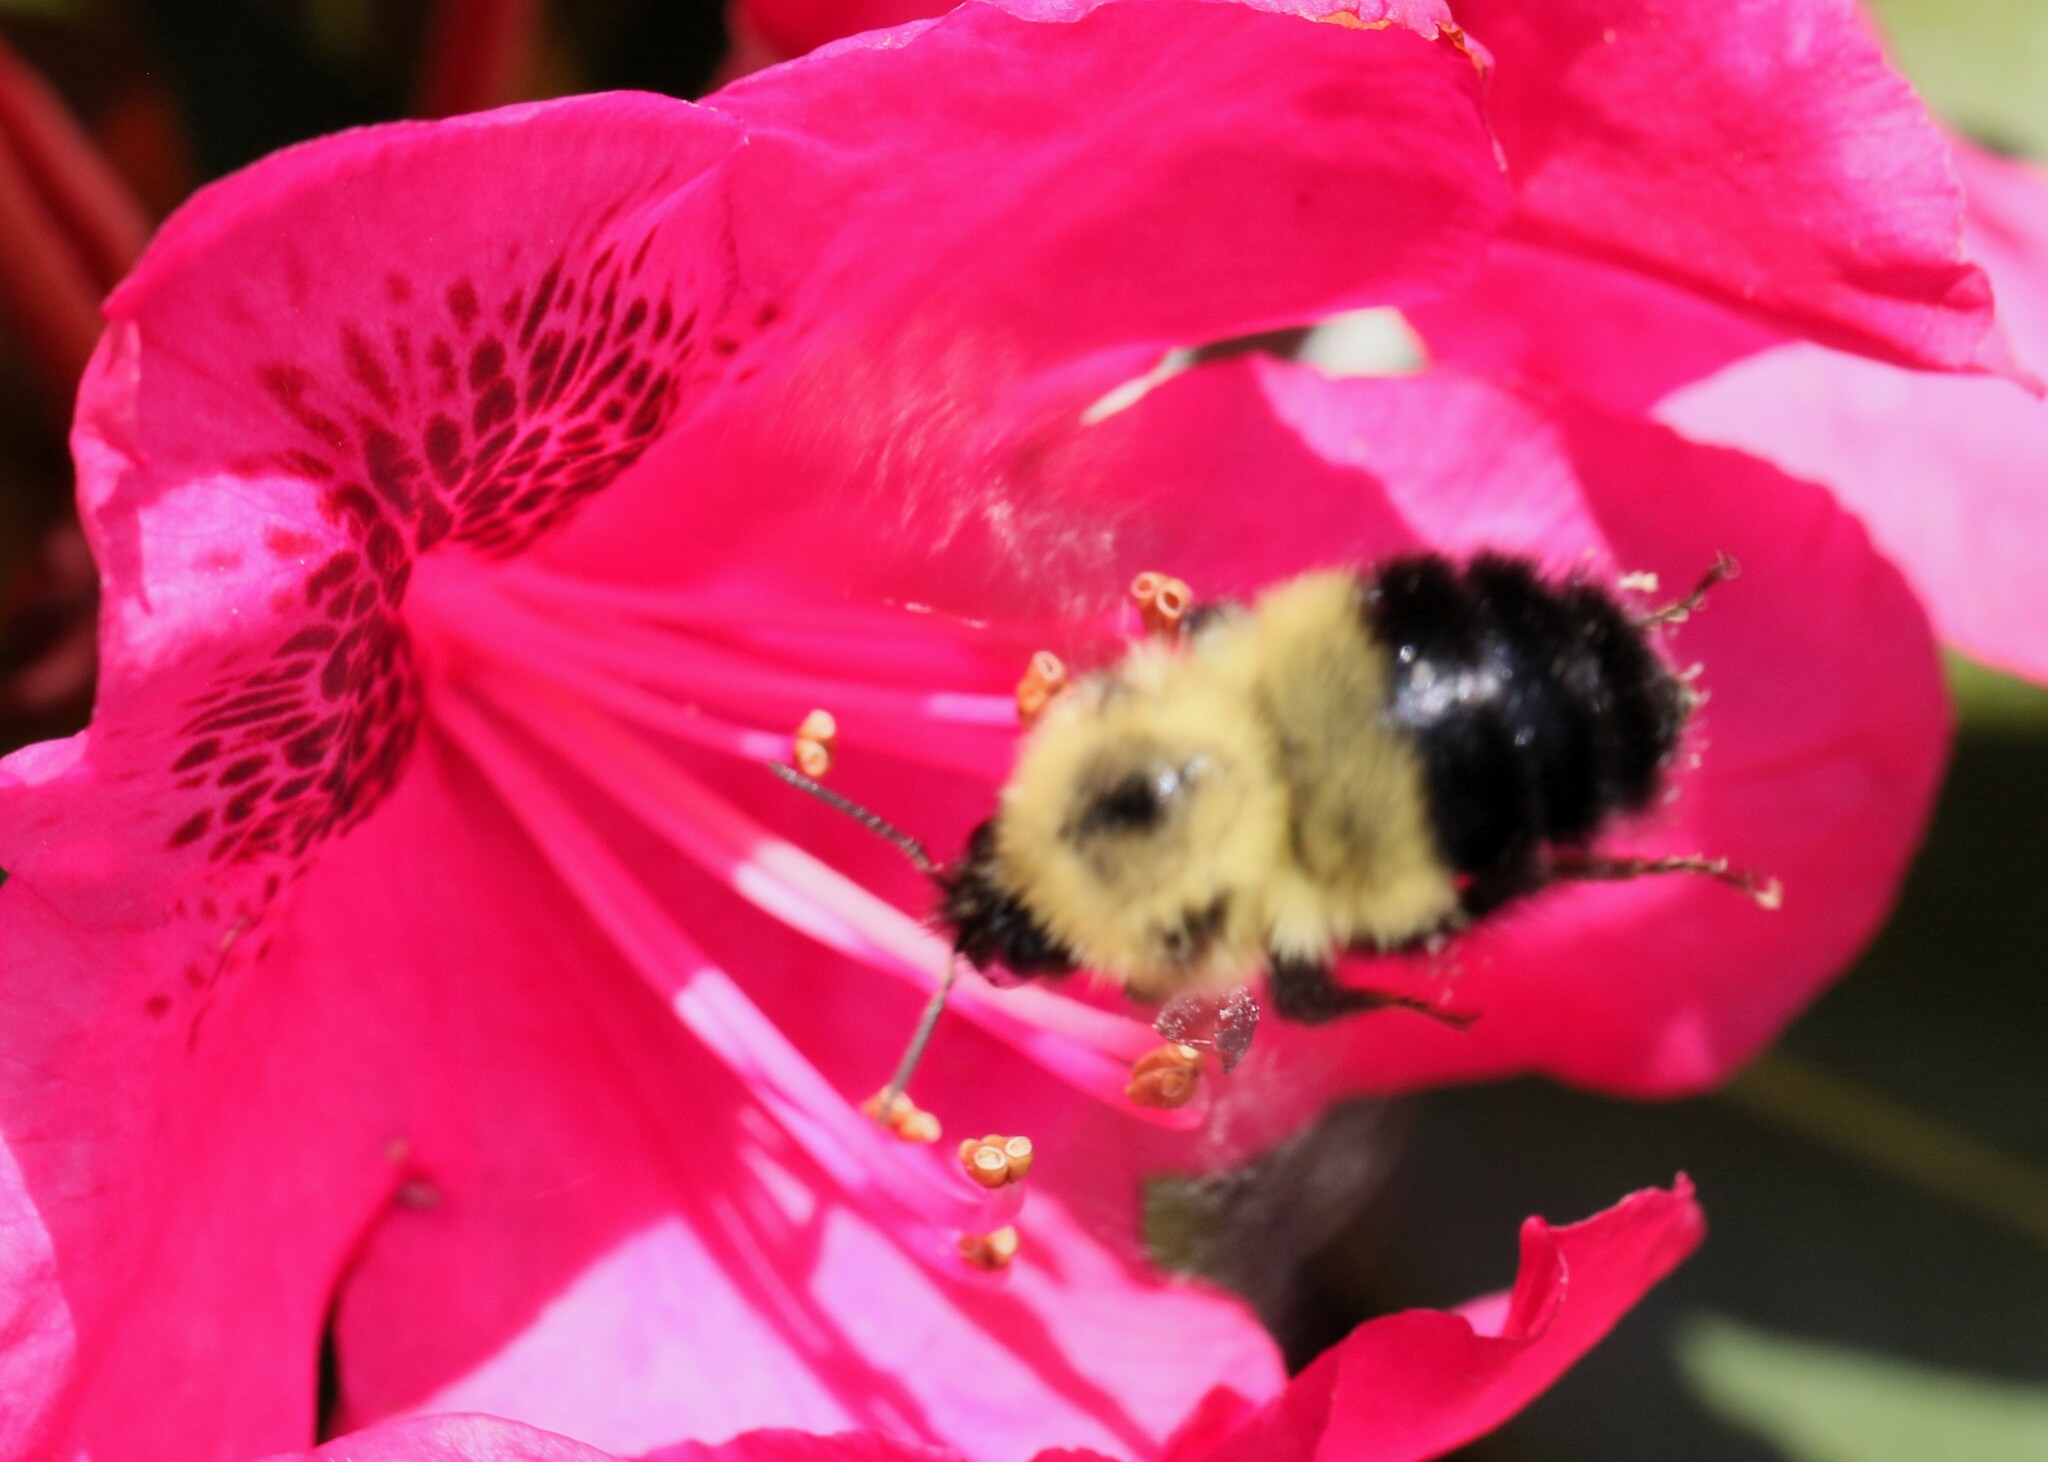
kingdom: Animalia
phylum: Arthropoda
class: Insecta
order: Hymenoptera
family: Apidae
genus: Pyrobombus
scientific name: Pyrobombus
